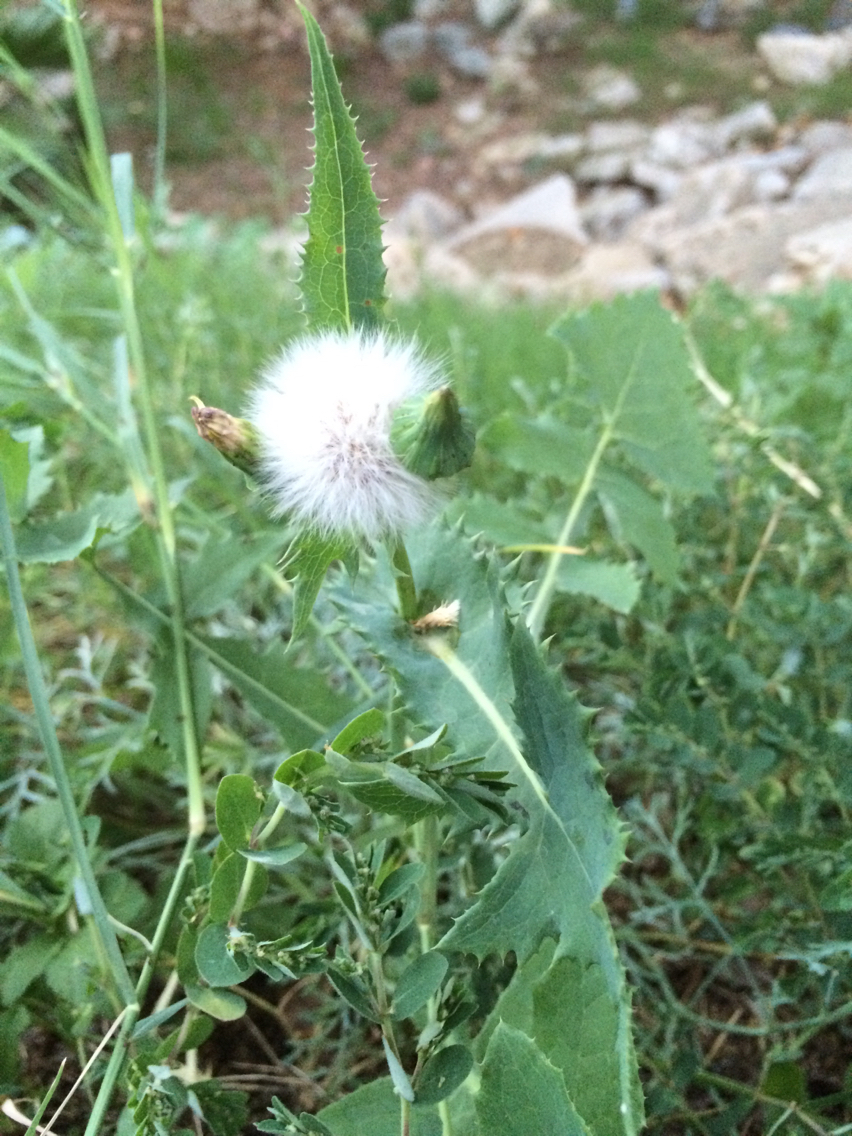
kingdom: Plantae
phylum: Tracheophyta
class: Magnoliopsida
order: Asterales
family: Asteraceae
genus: Sonchus
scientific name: Sonchus oleraceus
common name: Common sowthistle
